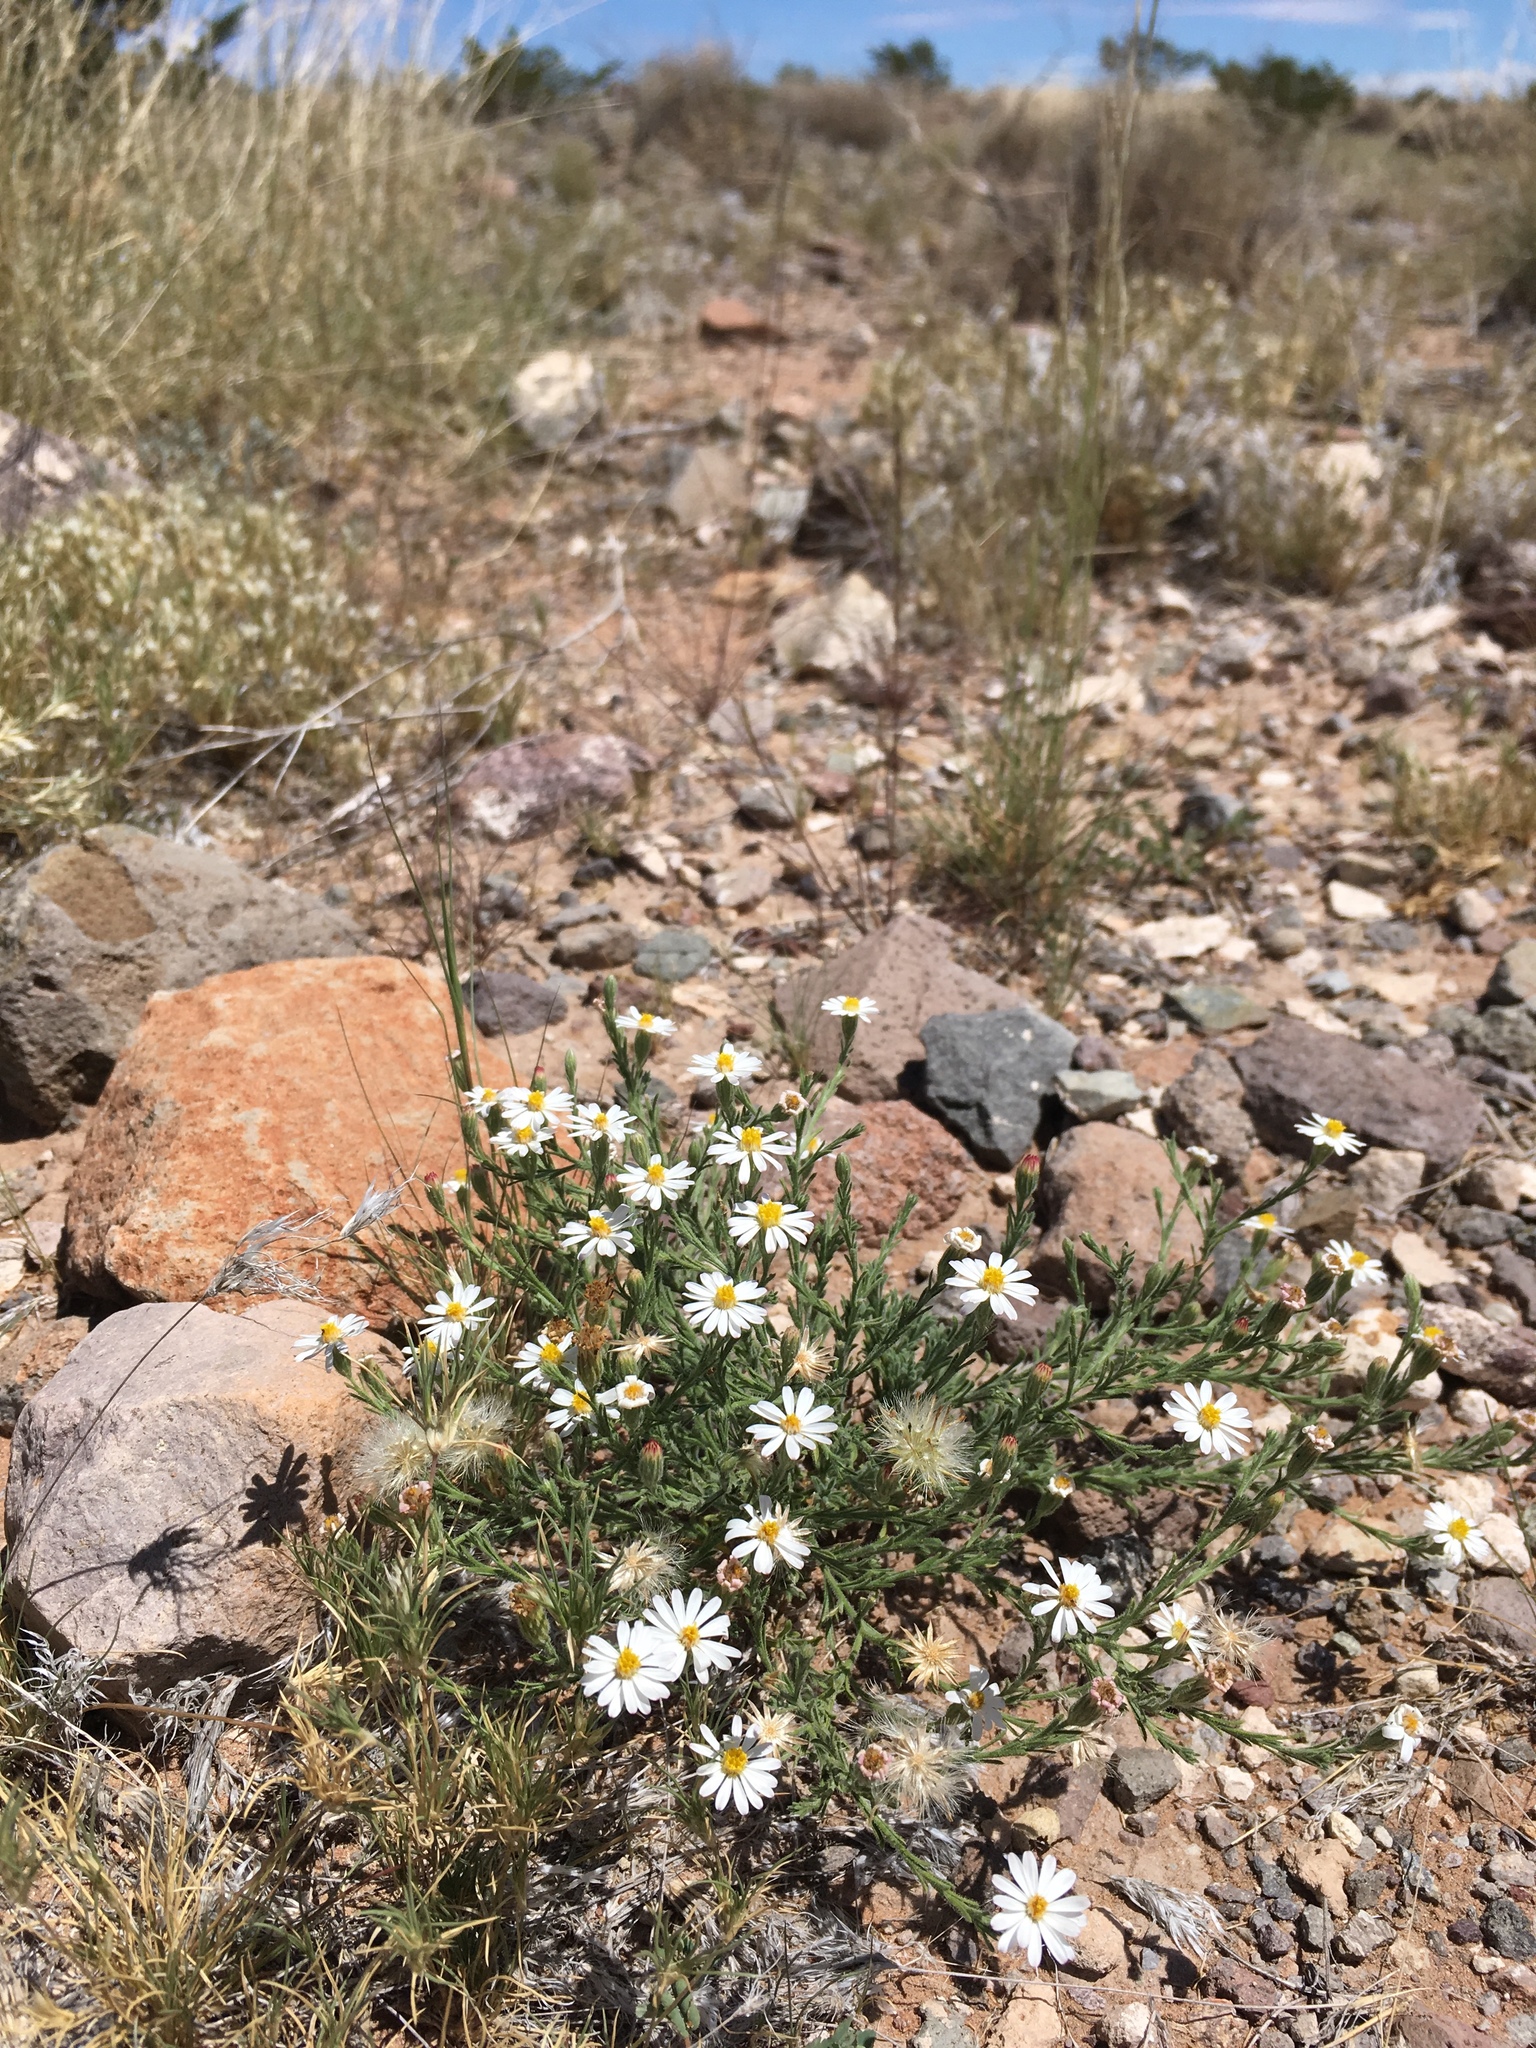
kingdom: Plantae
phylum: Tracheophyta
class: Magnoliopsida
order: Asterales
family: Asteraceae
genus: Chaetopappa
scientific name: Chaetopappa ericoides
